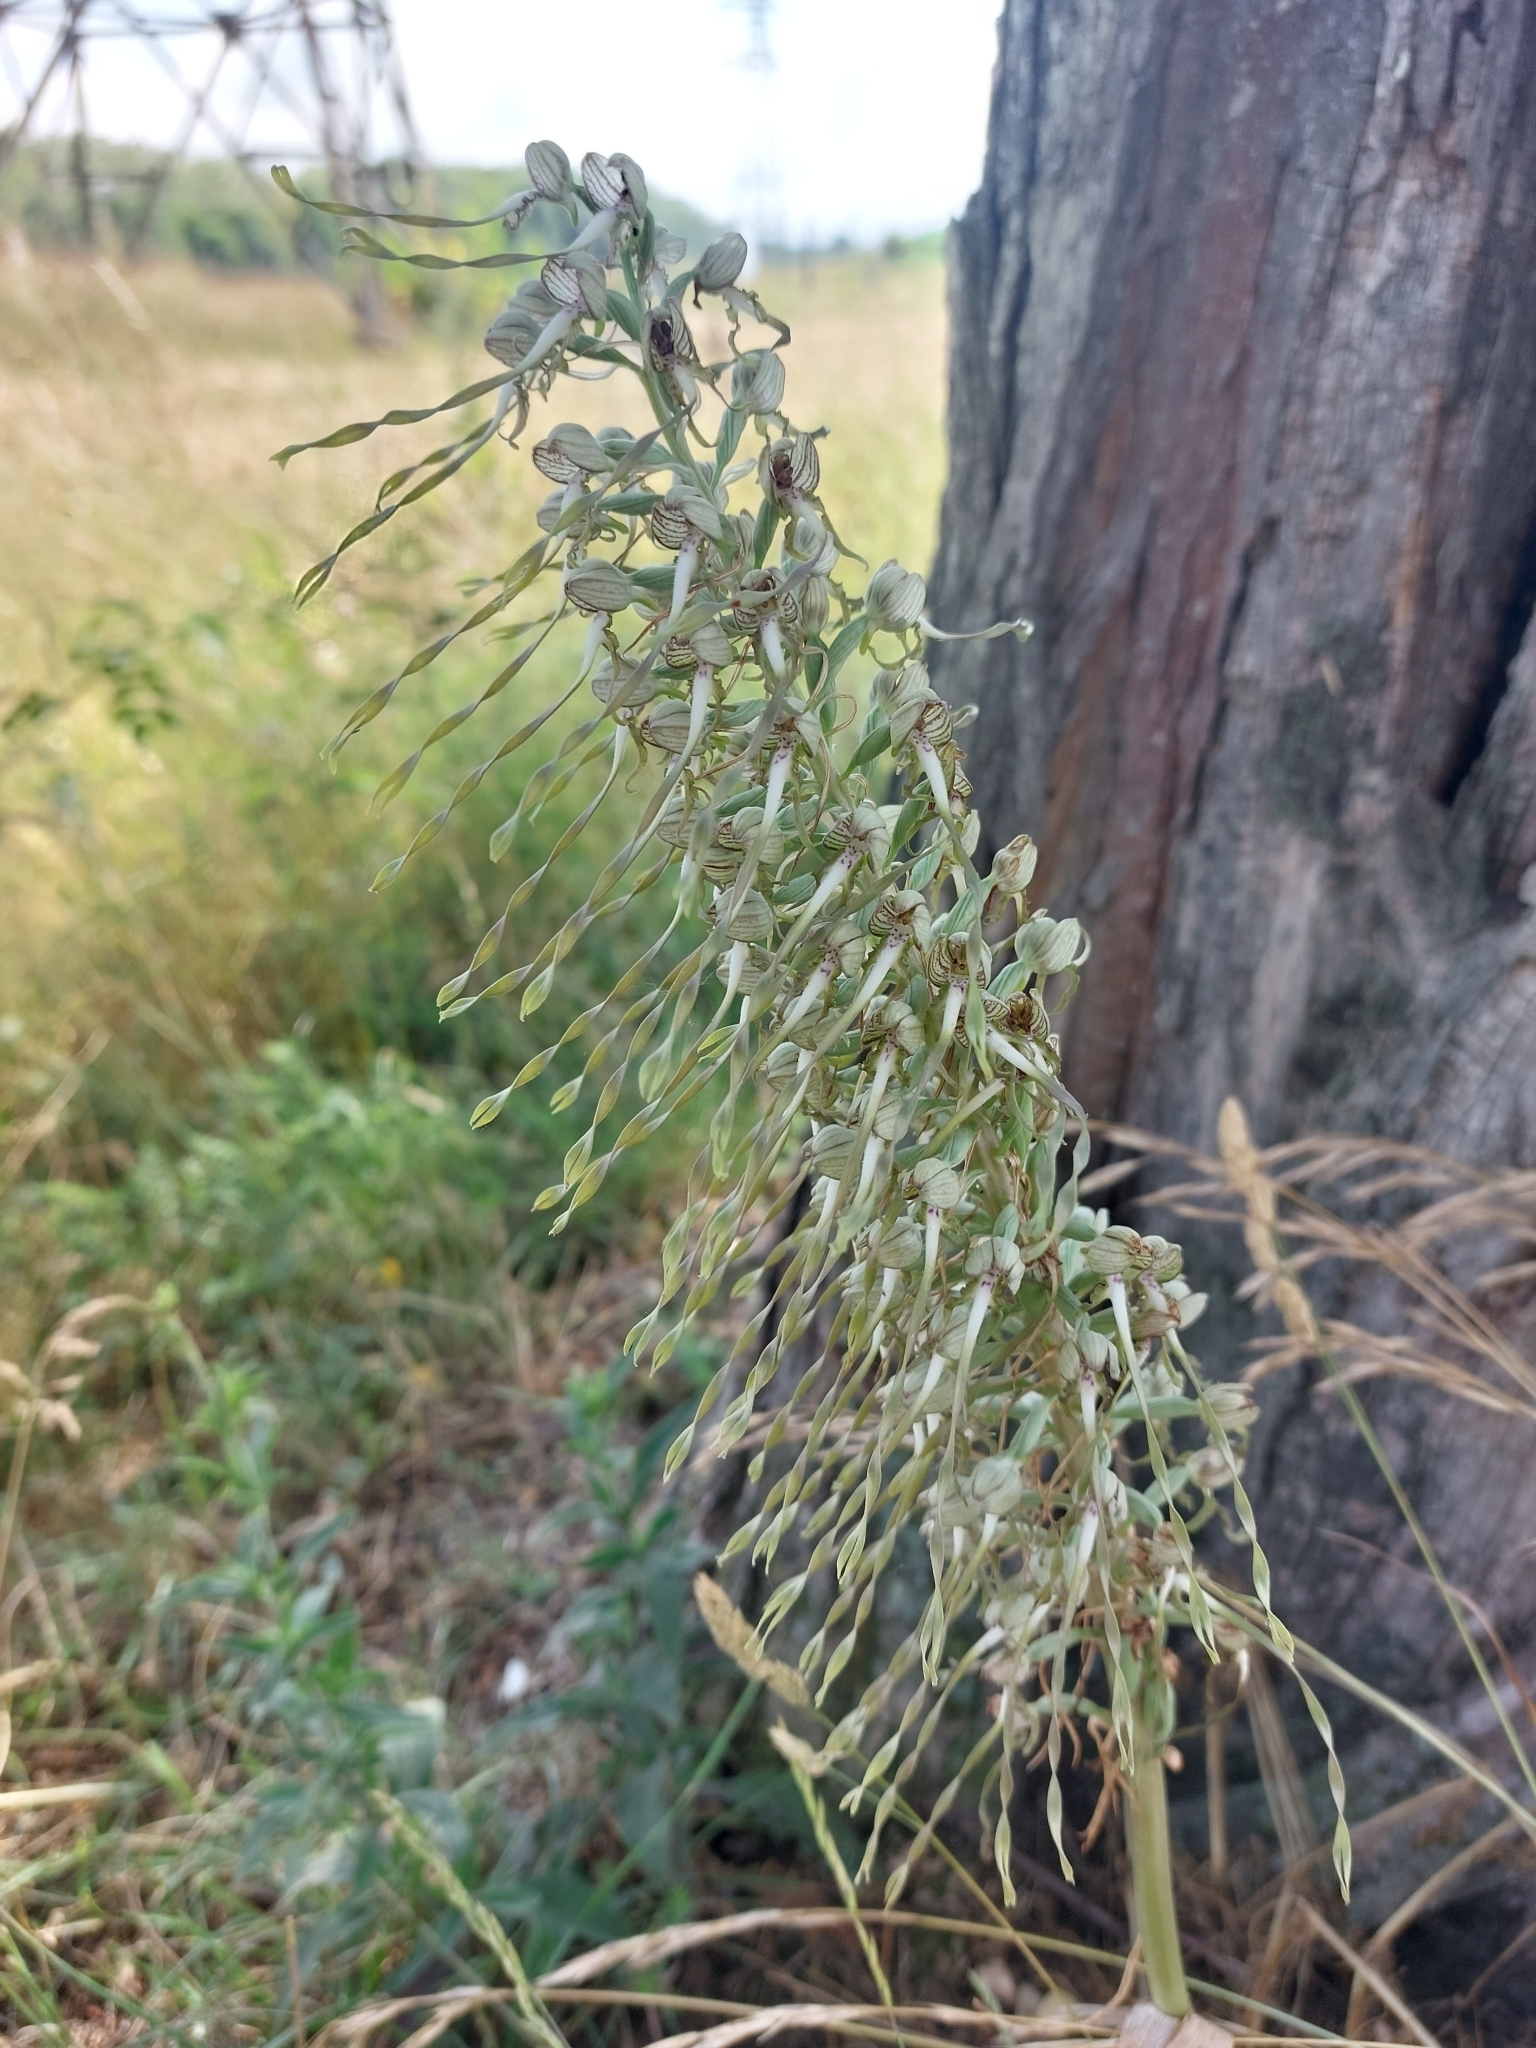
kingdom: Plantae
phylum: Tracheophyta
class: Liliopsida
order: Asparagales
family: Orchidaceae
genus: Himantoglossum
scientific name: Himantoglossum hircinum
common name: Lizard orchid
